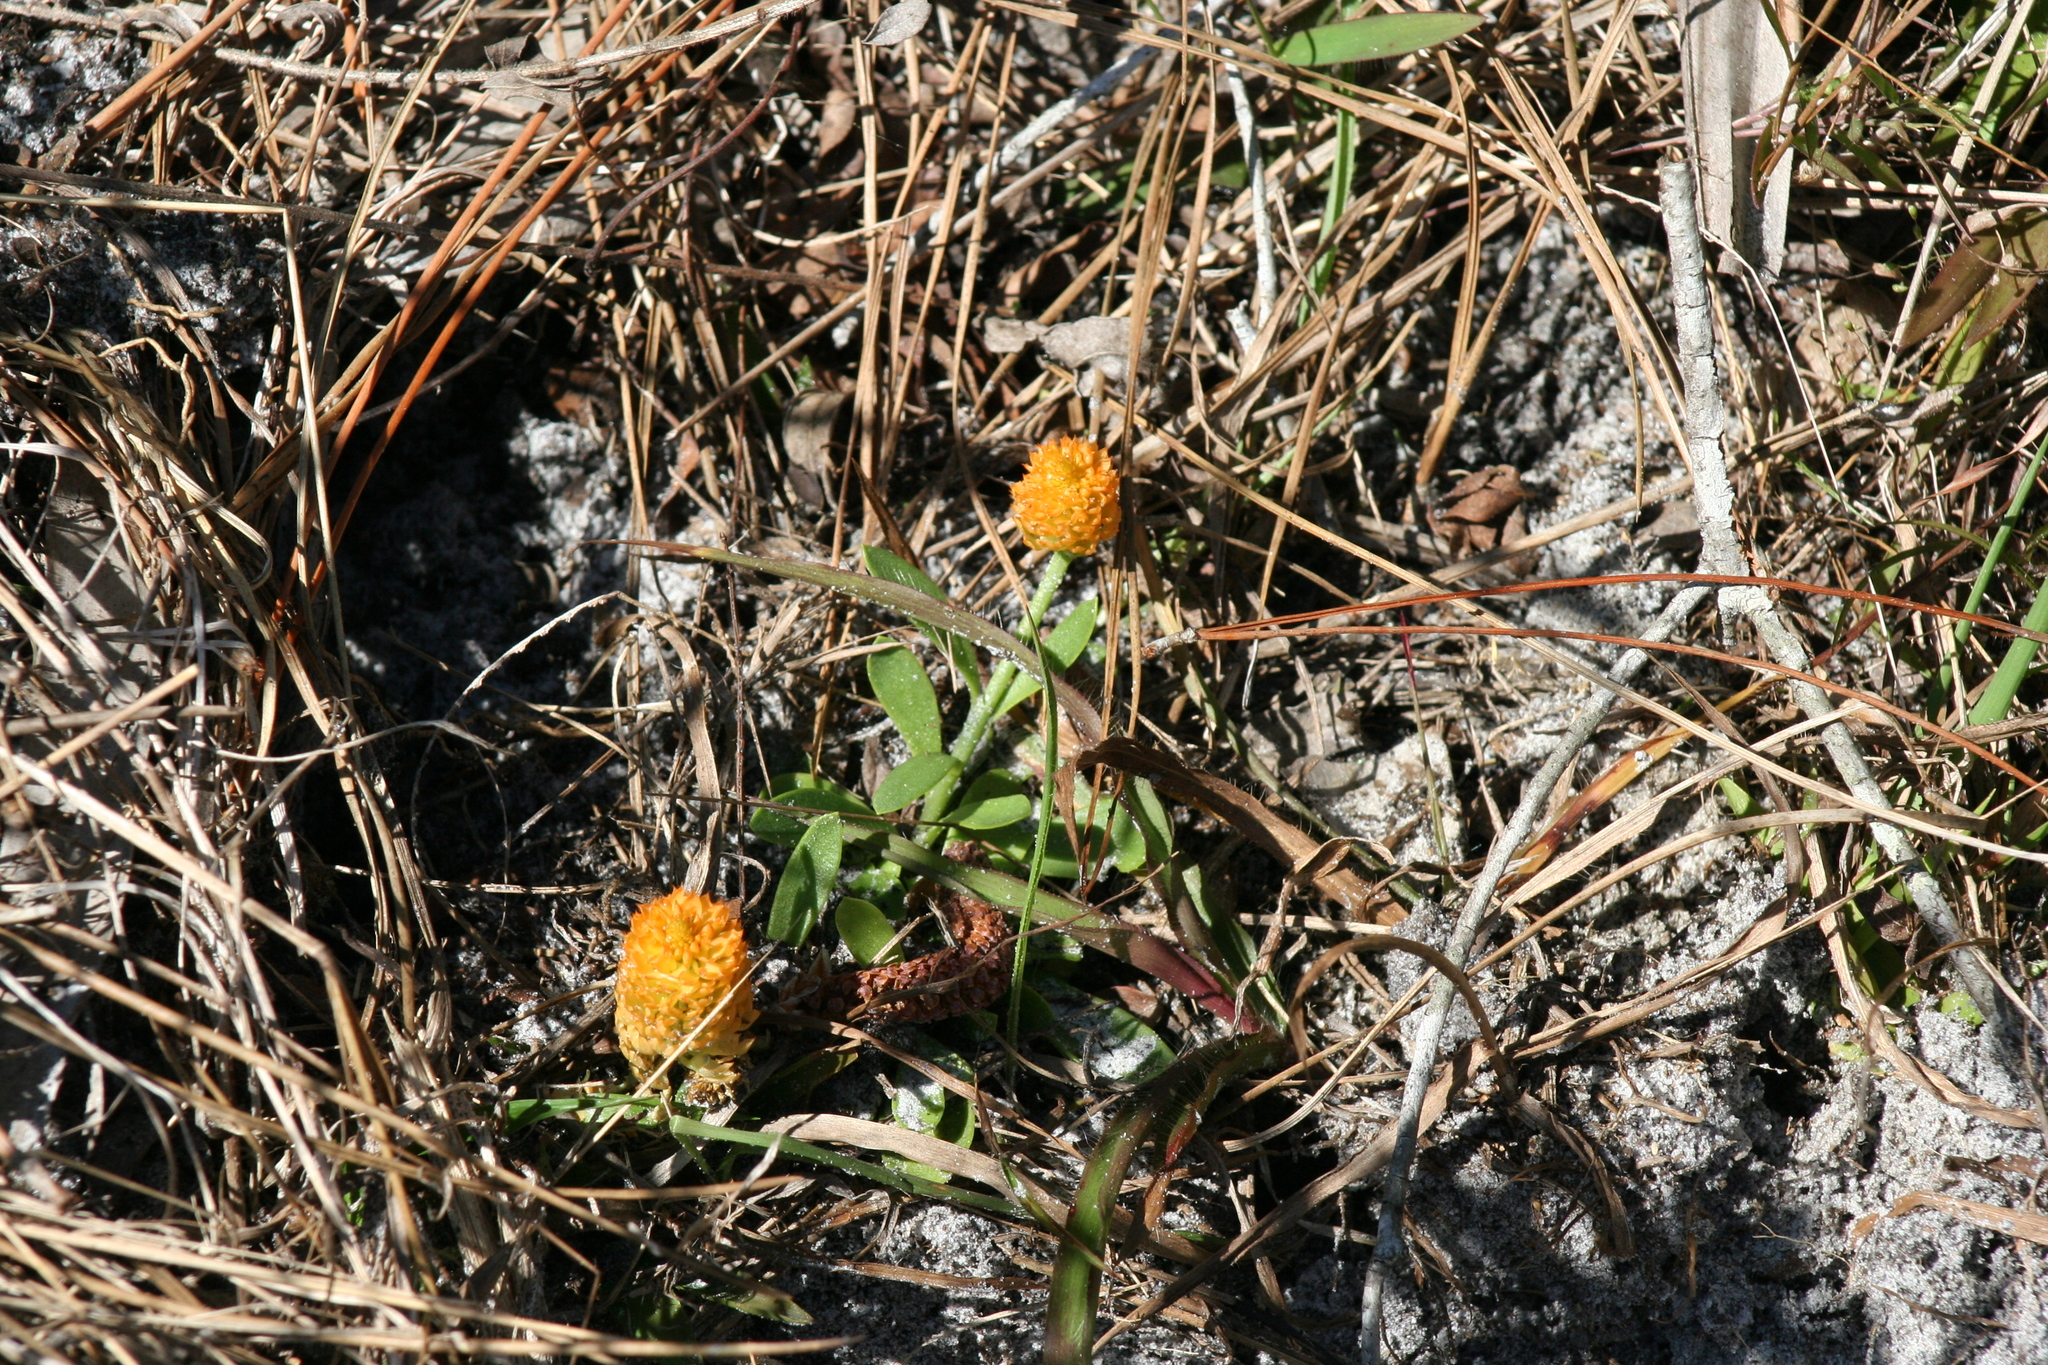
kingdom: Plantae
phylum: Tracheophyta
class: Magnoliopsida
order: Fabales
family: Polygalaceae
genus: Polygala
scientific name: Polygala lutea
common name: Orange milkwort
